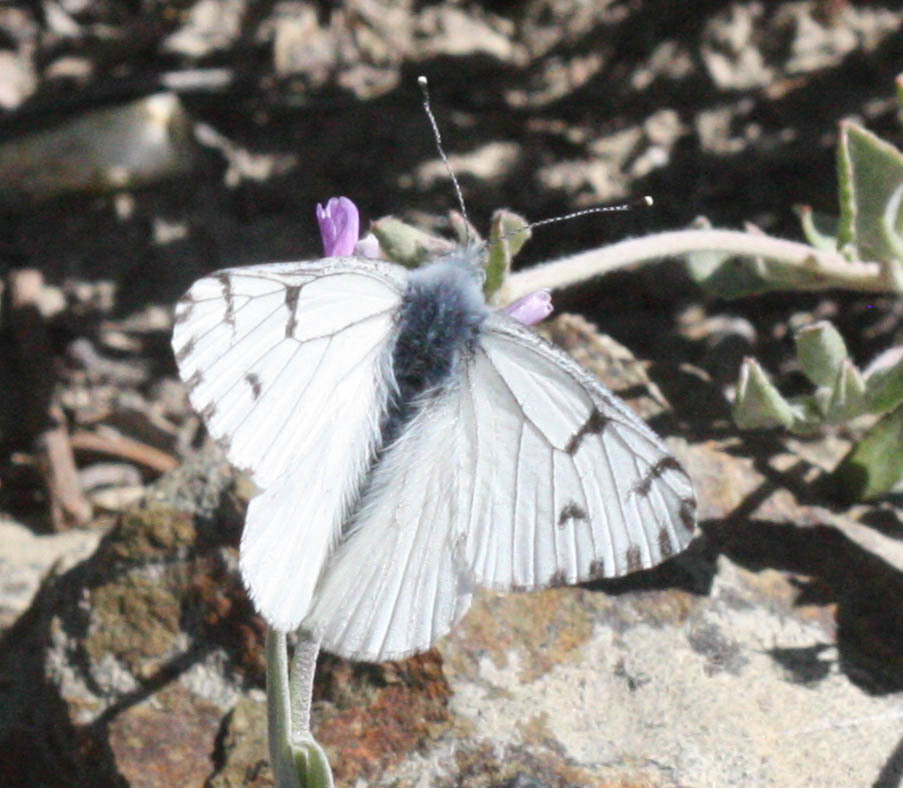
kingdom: Animalia
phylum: Arthropoda
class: Insecta
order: Lepidoptera
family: Pieridae
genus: Pontia
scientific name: Pontia sisymbrii
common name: California white
